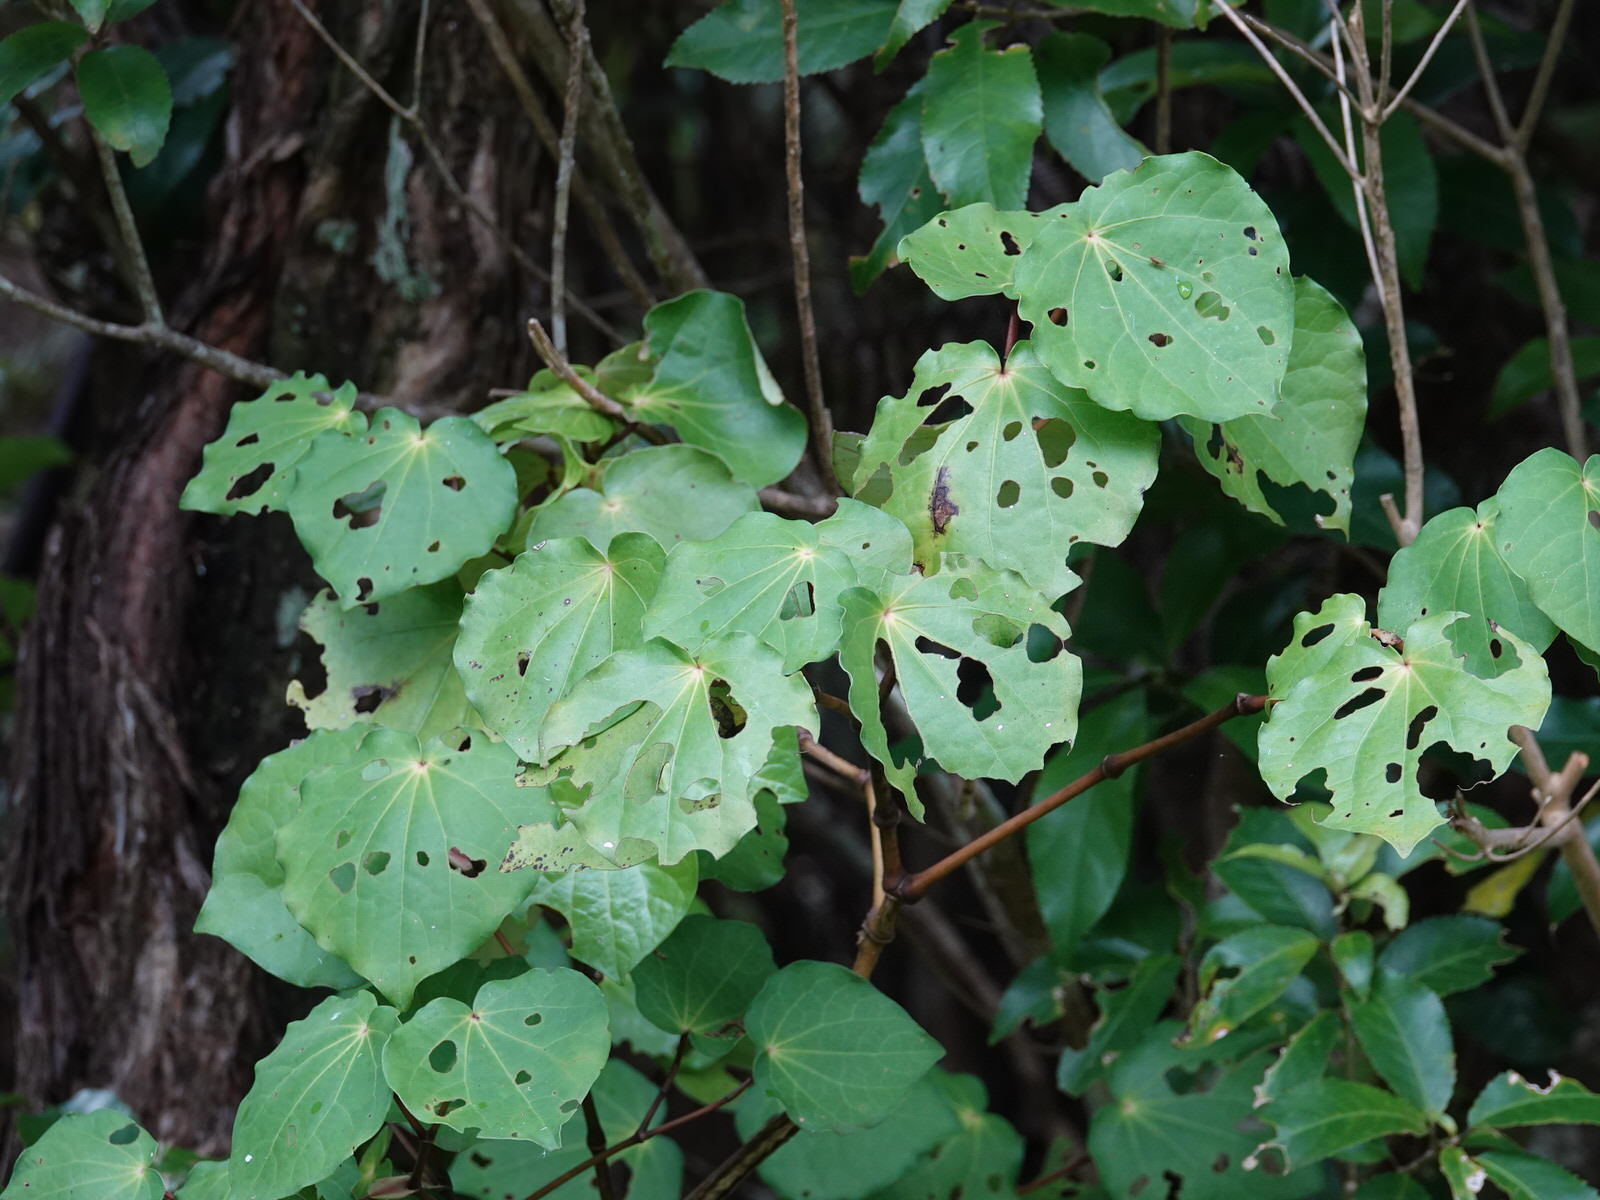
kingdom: Plantae
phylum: Tracheophyta
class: Magnoliopsida
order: Piperales
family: Piperaceae
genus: Macropiper
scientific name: Macropiper excelsum
